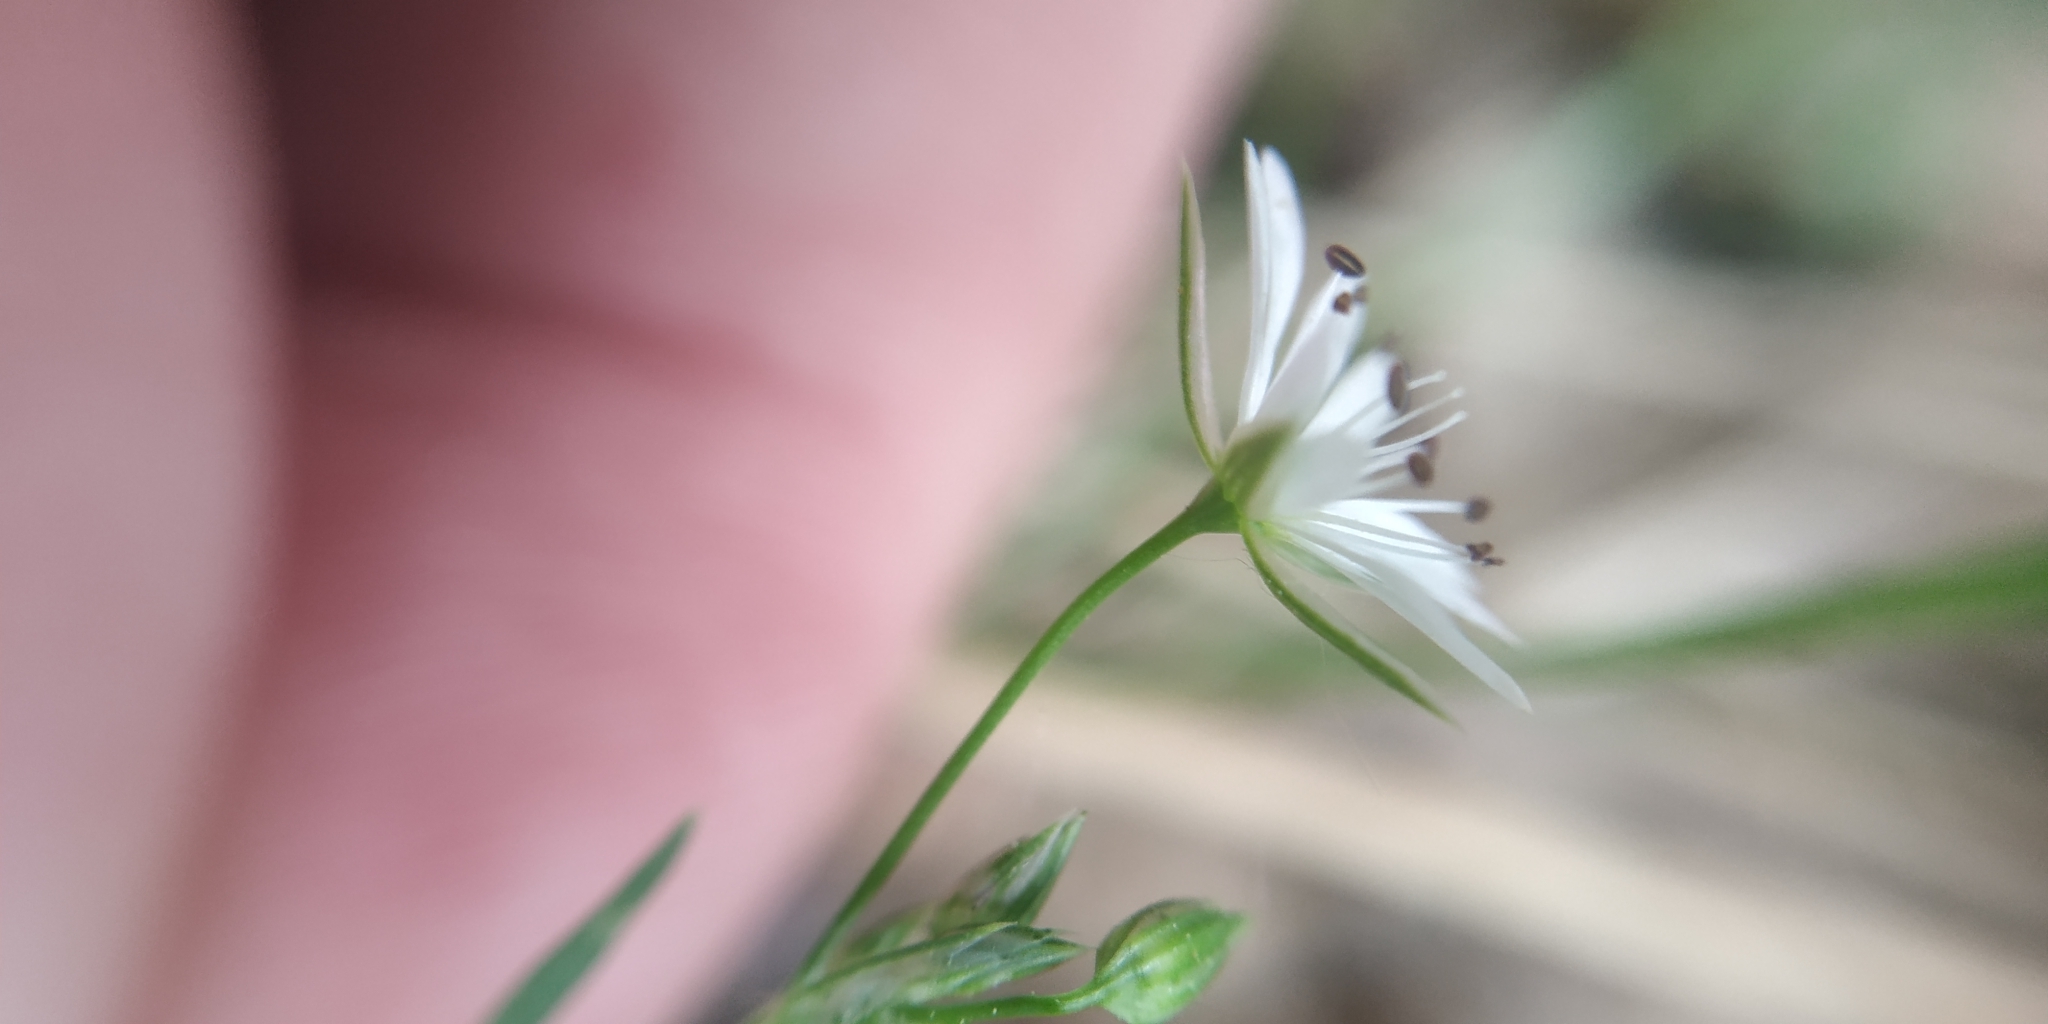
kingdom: Plantae
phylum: Tracheophyta
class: Magnoliopsida
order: Caryophyllales
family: Caryophyllaceae
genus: Stellaria
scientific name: Stellaria graminea
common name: Grass-like starwort
